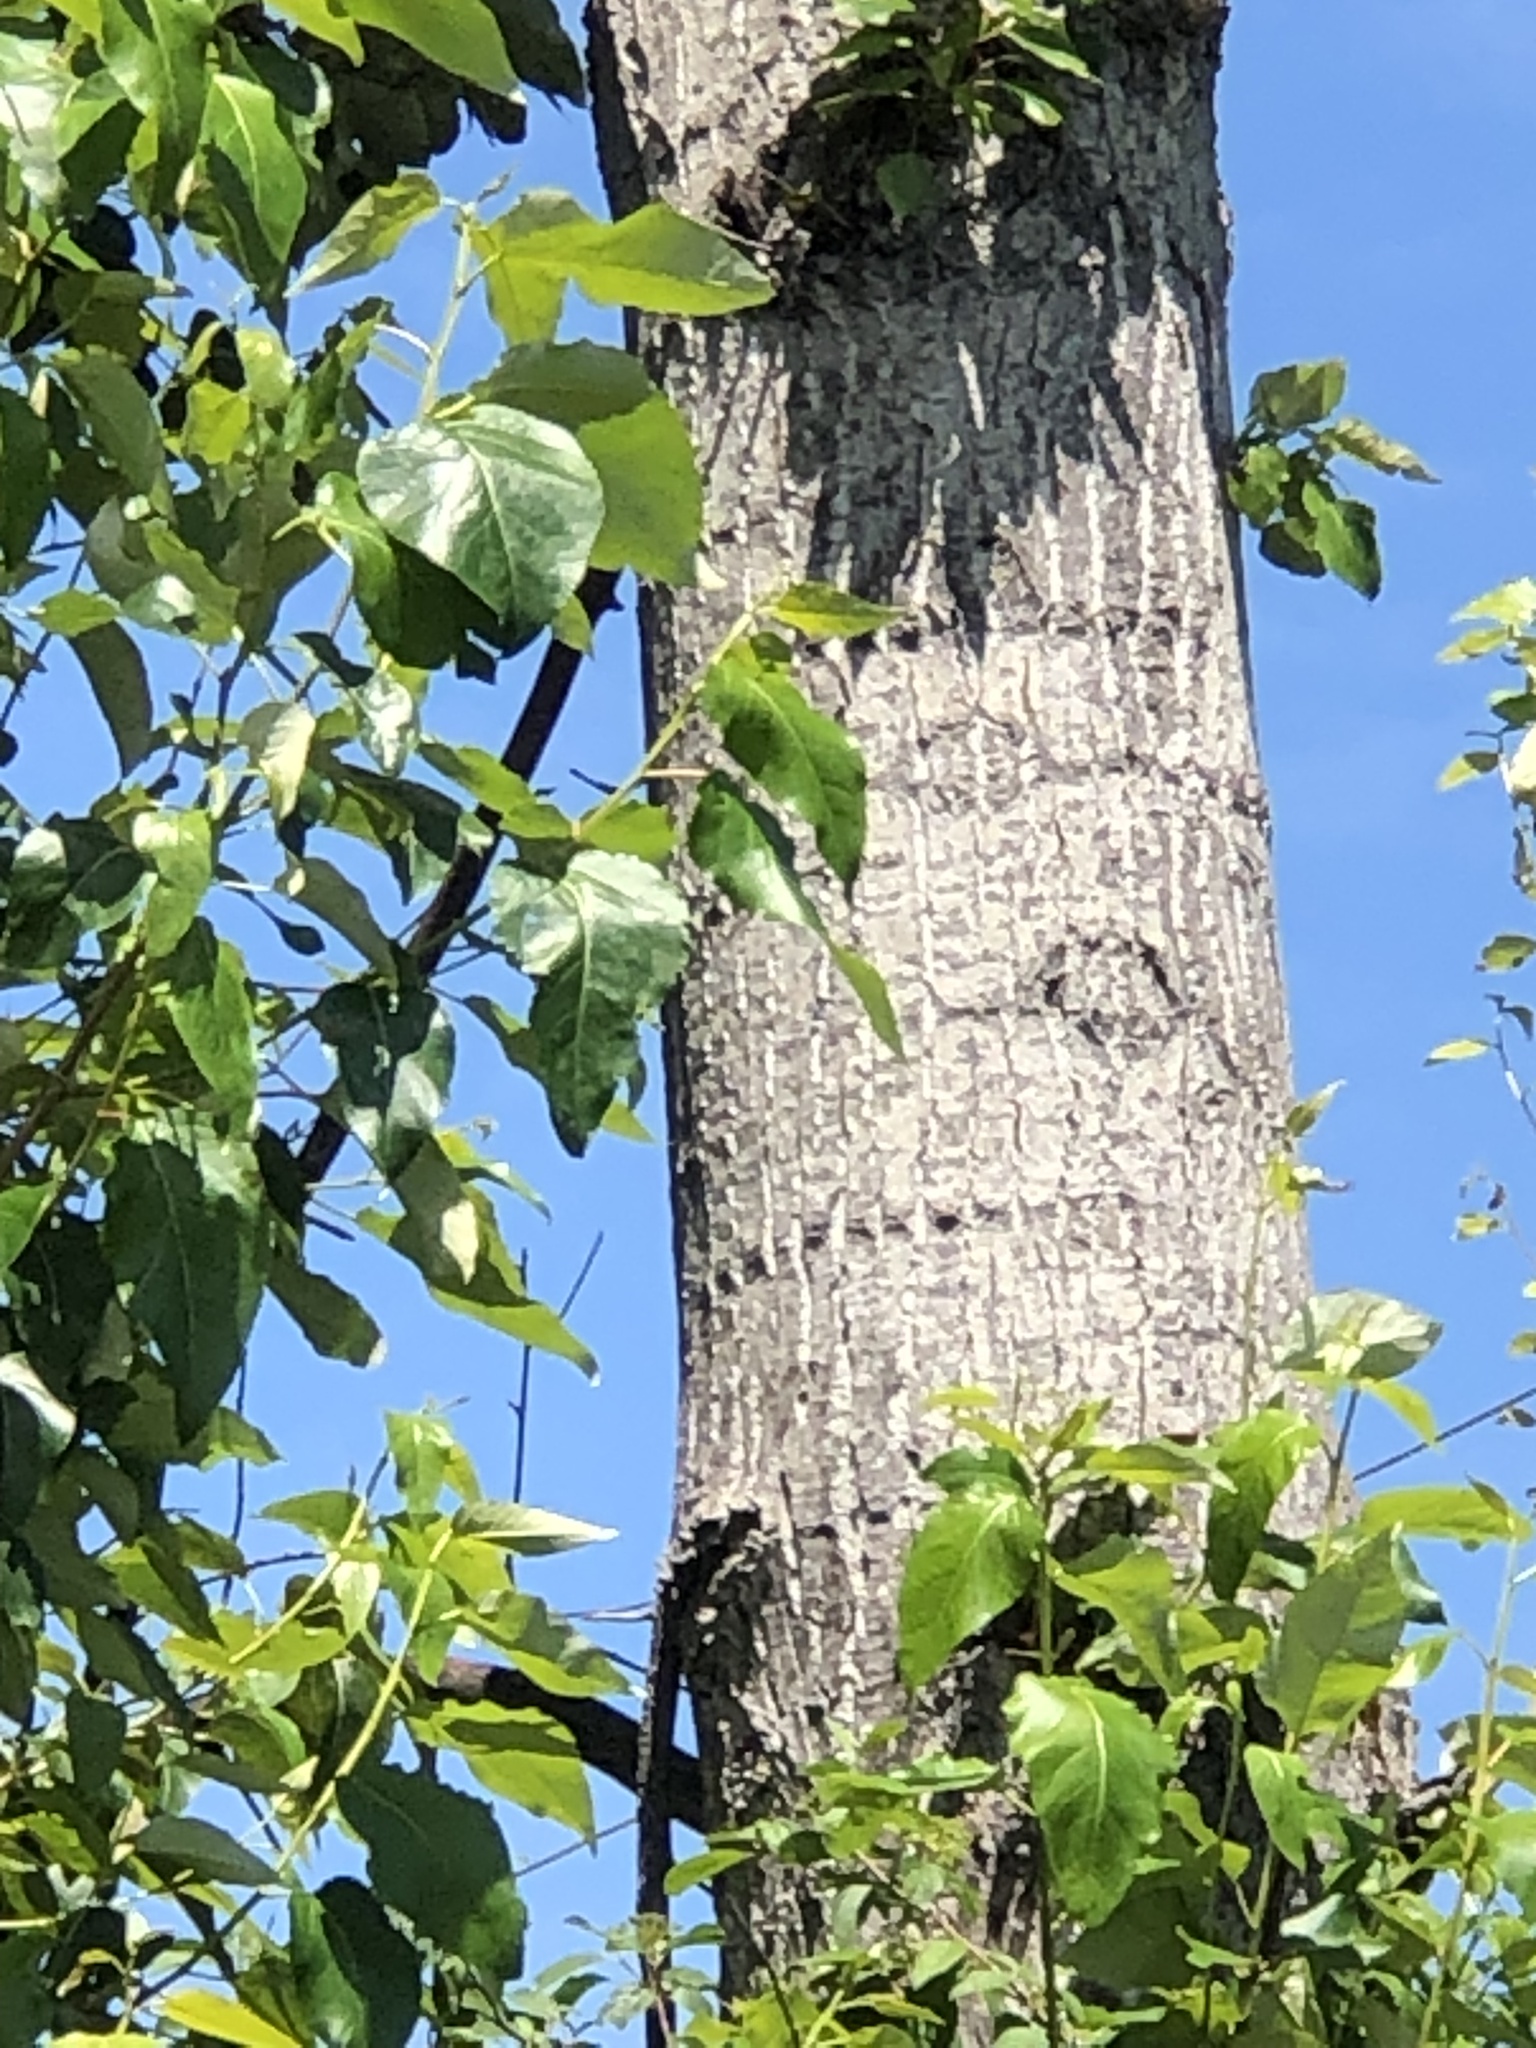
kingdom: Plantae
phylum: Tracheophyta
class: Magnoliopsida
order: Malpighiales
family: Salicaceae
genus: Populus
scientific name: Populus trichocarpa
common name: Black cottonwood
